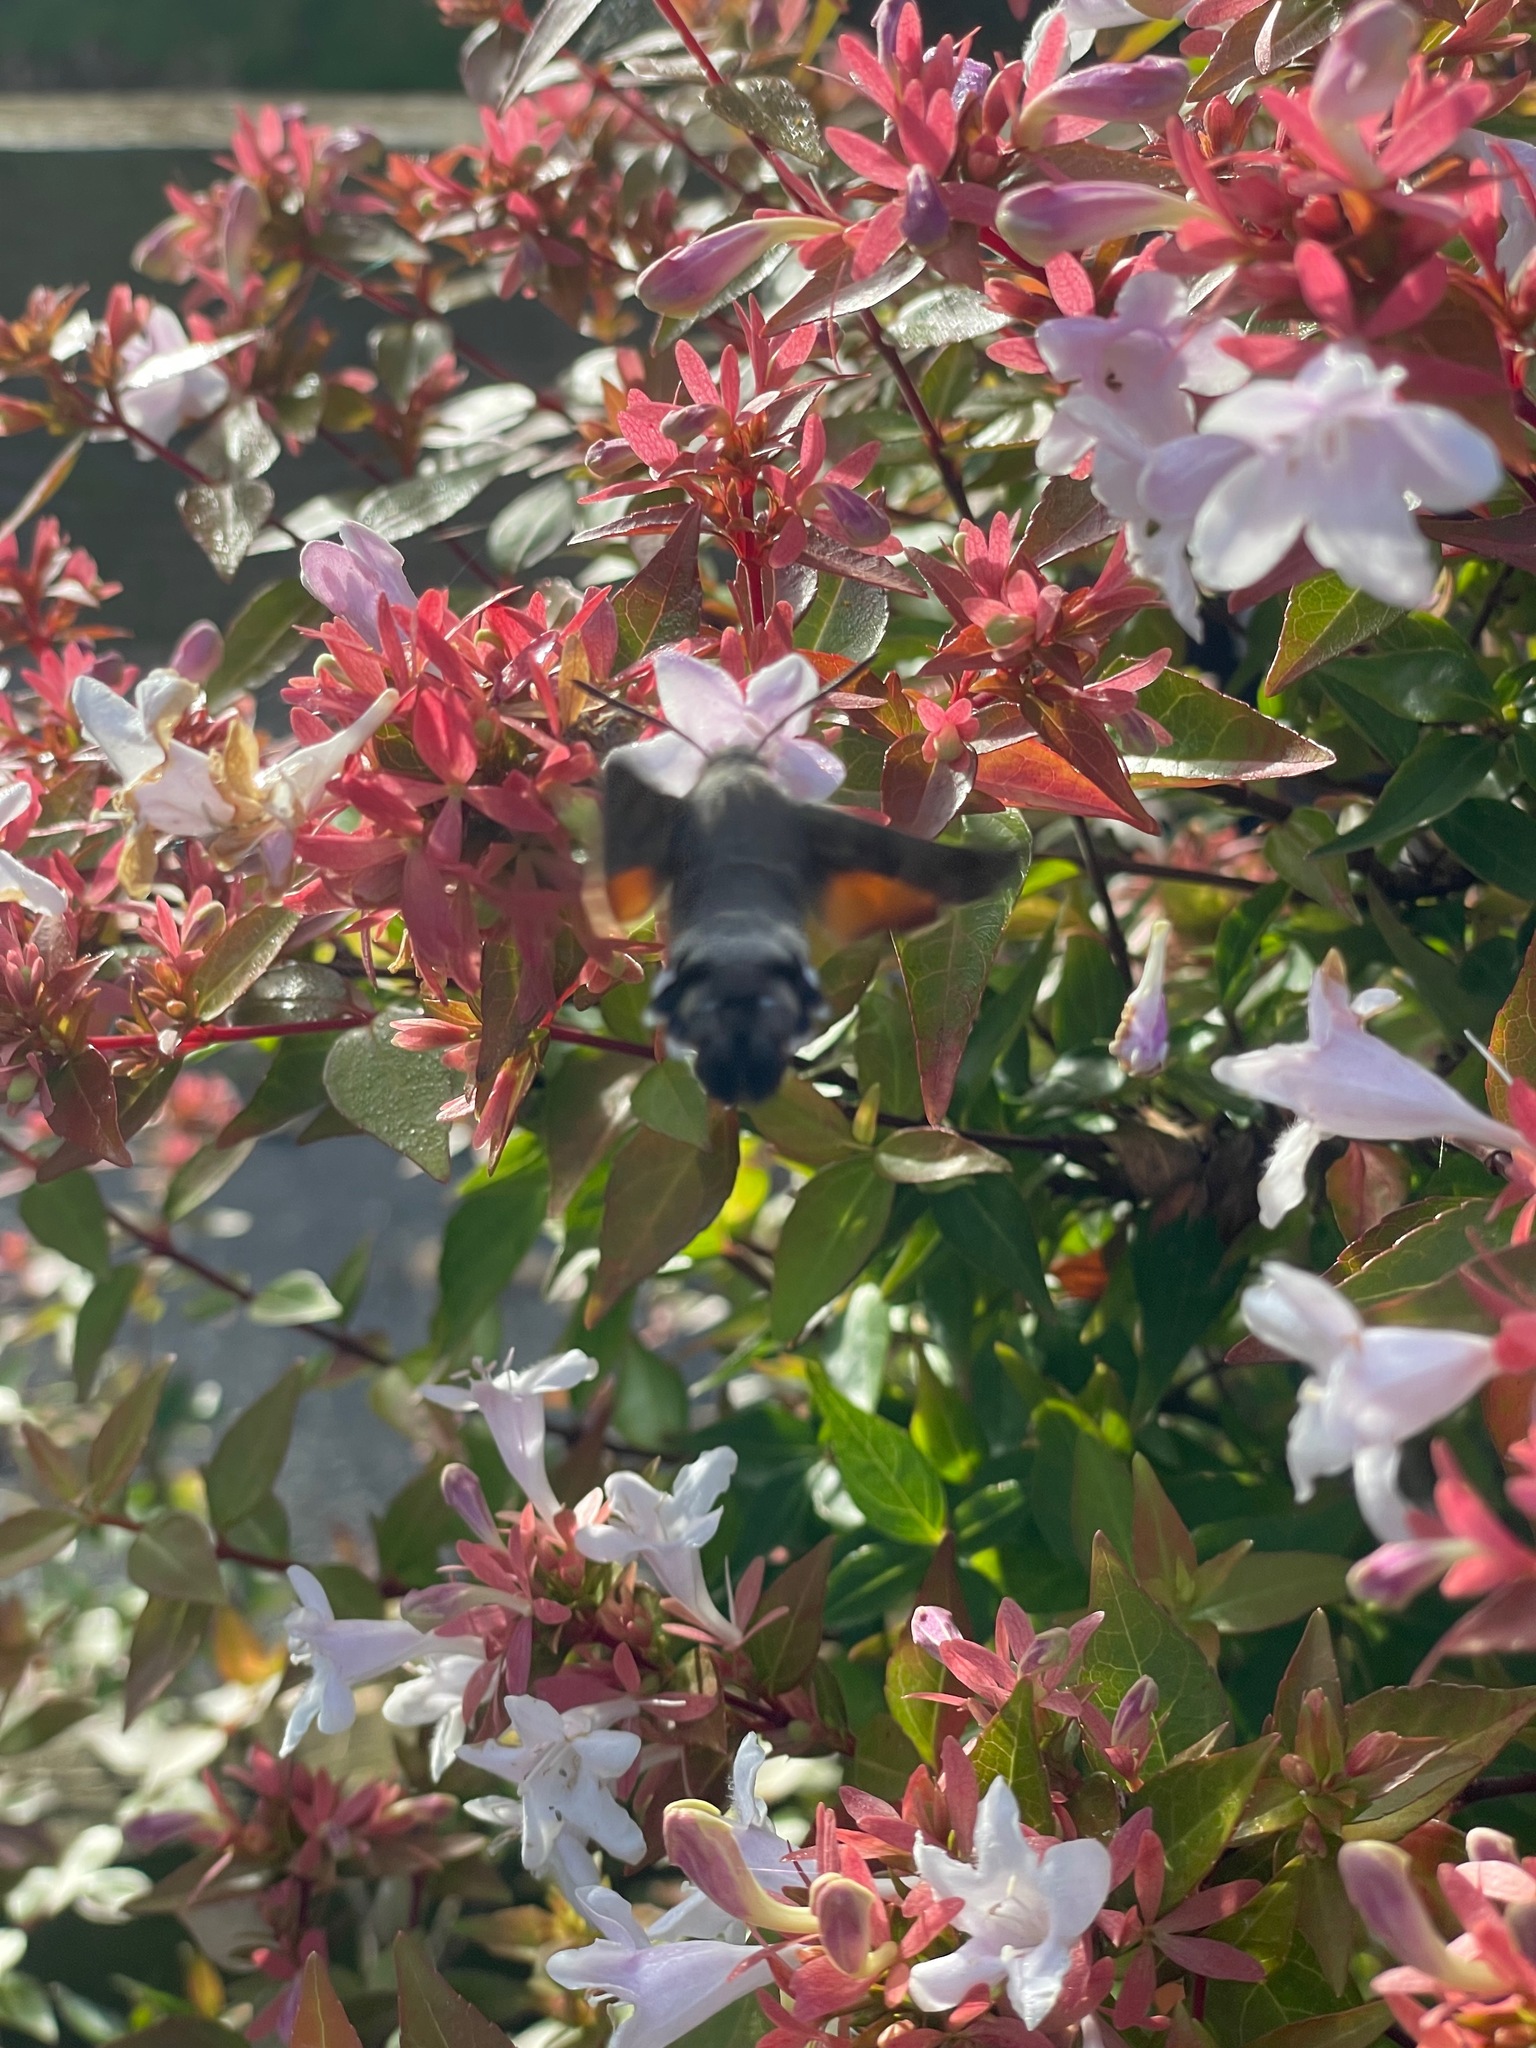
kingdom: Animalia
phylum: Arthropoda
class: Insecta
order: Lepidoptera
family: Sphingidae
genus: Macroglossum
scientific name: Macroglossum stellatarum
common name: Humming-bird hawk-moth
